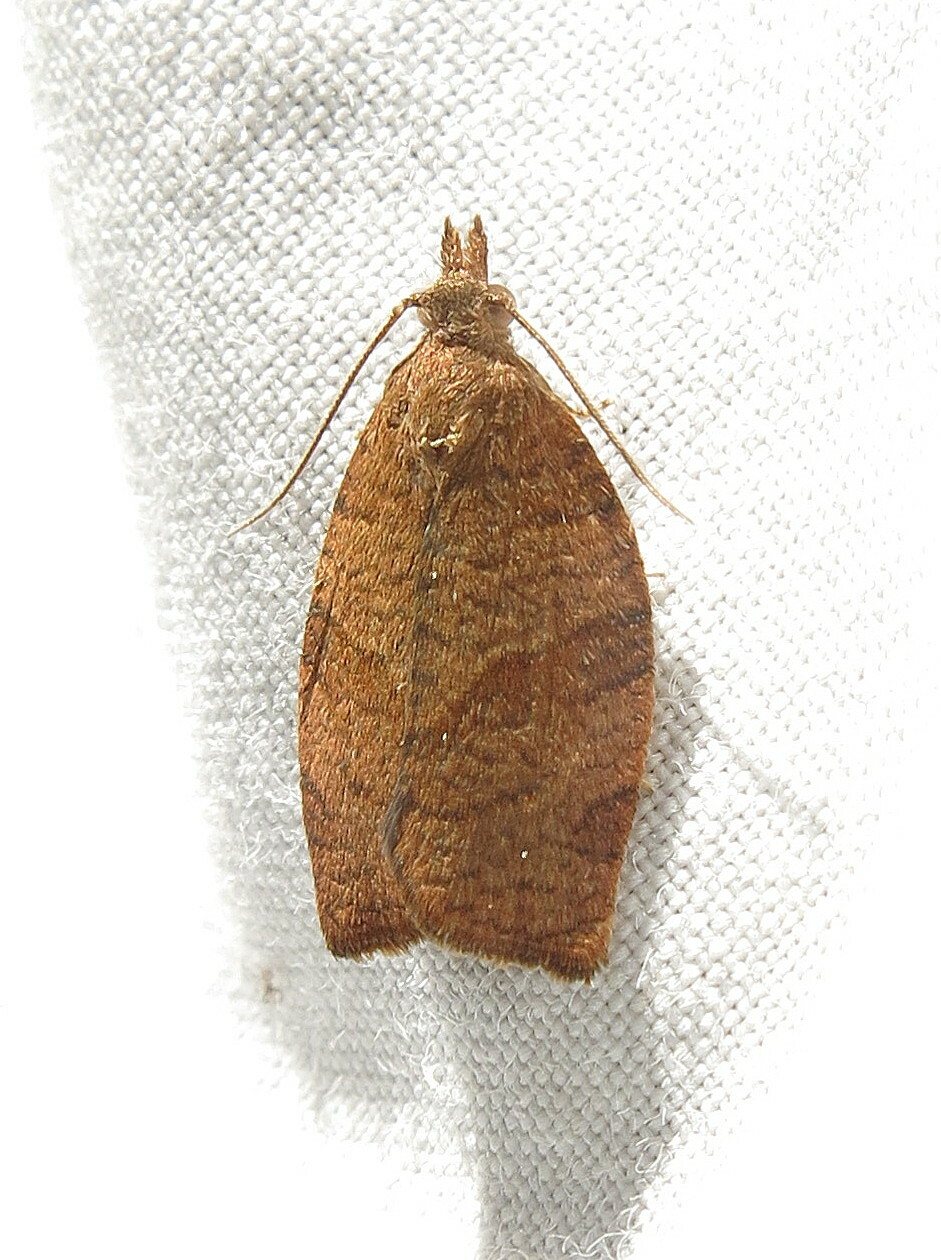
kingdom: Animalia
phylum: Arthropoda
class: Insecta
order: Lepidoptera
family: Tortricidae
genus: Pandemis
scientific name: Pandemis heparana
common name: Dark fruit-tree tortrix
